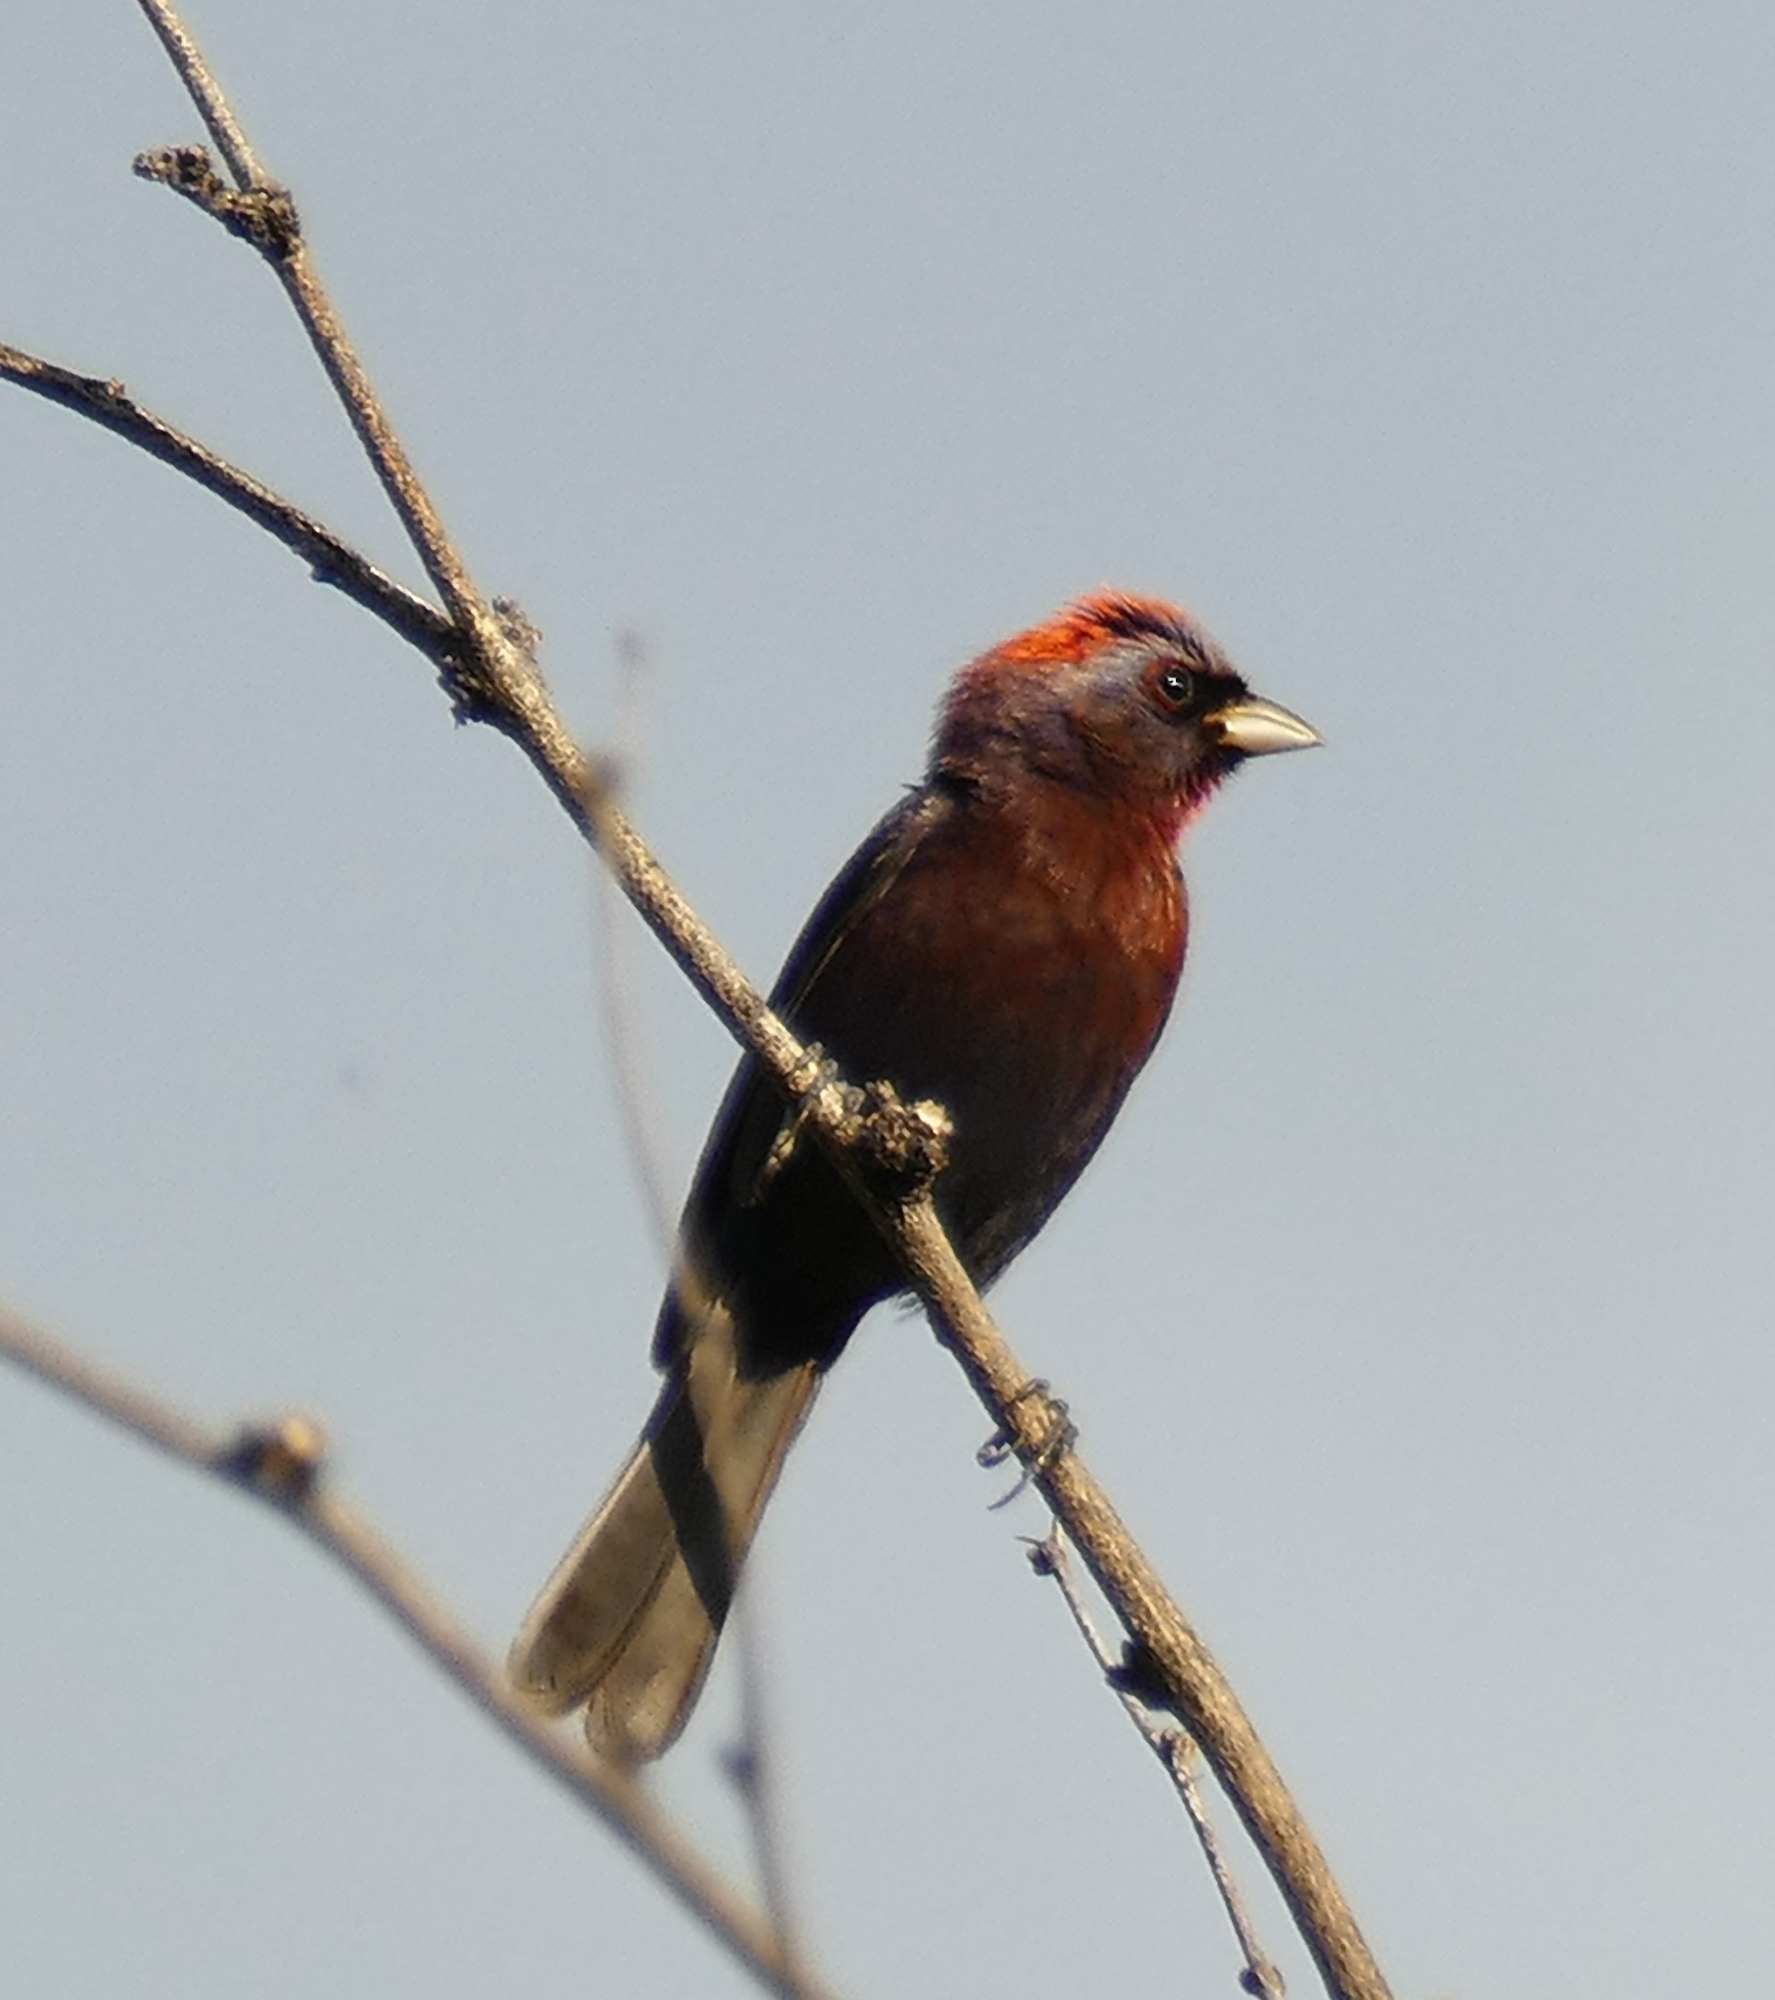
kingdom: Animalia
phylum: Chordata
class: Aves
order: Passeriformes
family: Cardinalidae
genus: Passerina
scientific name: Passerina versicolor
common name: Varied bunting
